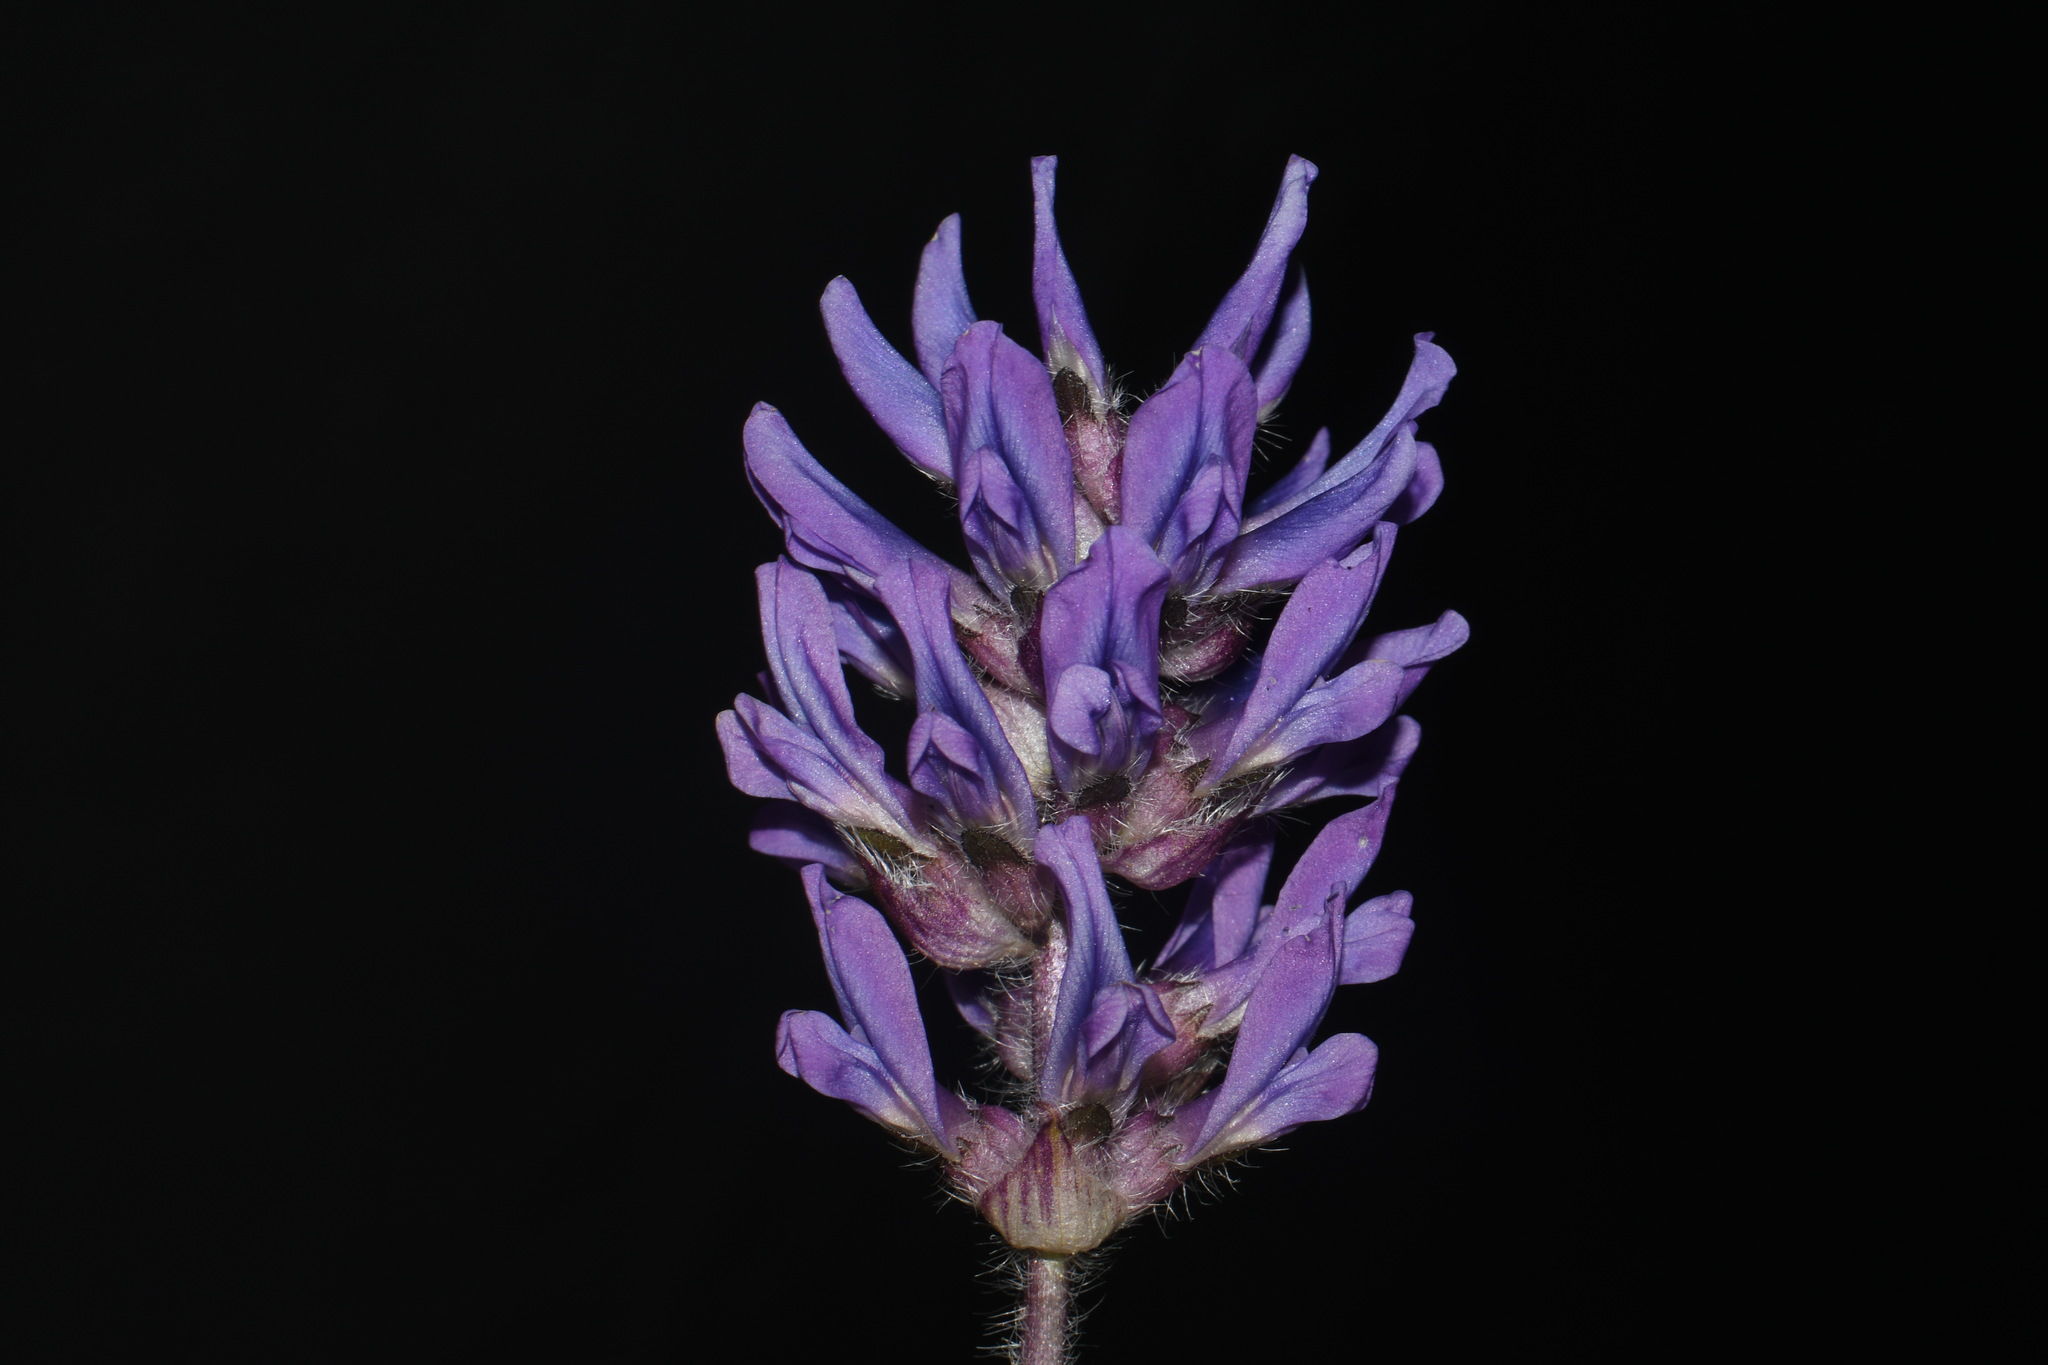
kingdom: Plantae
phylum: Tracheophyta
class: Magnoliopsida
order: Fabales
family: Fabaceae
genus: Pediomelum
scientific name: Pediomelum subacaule
